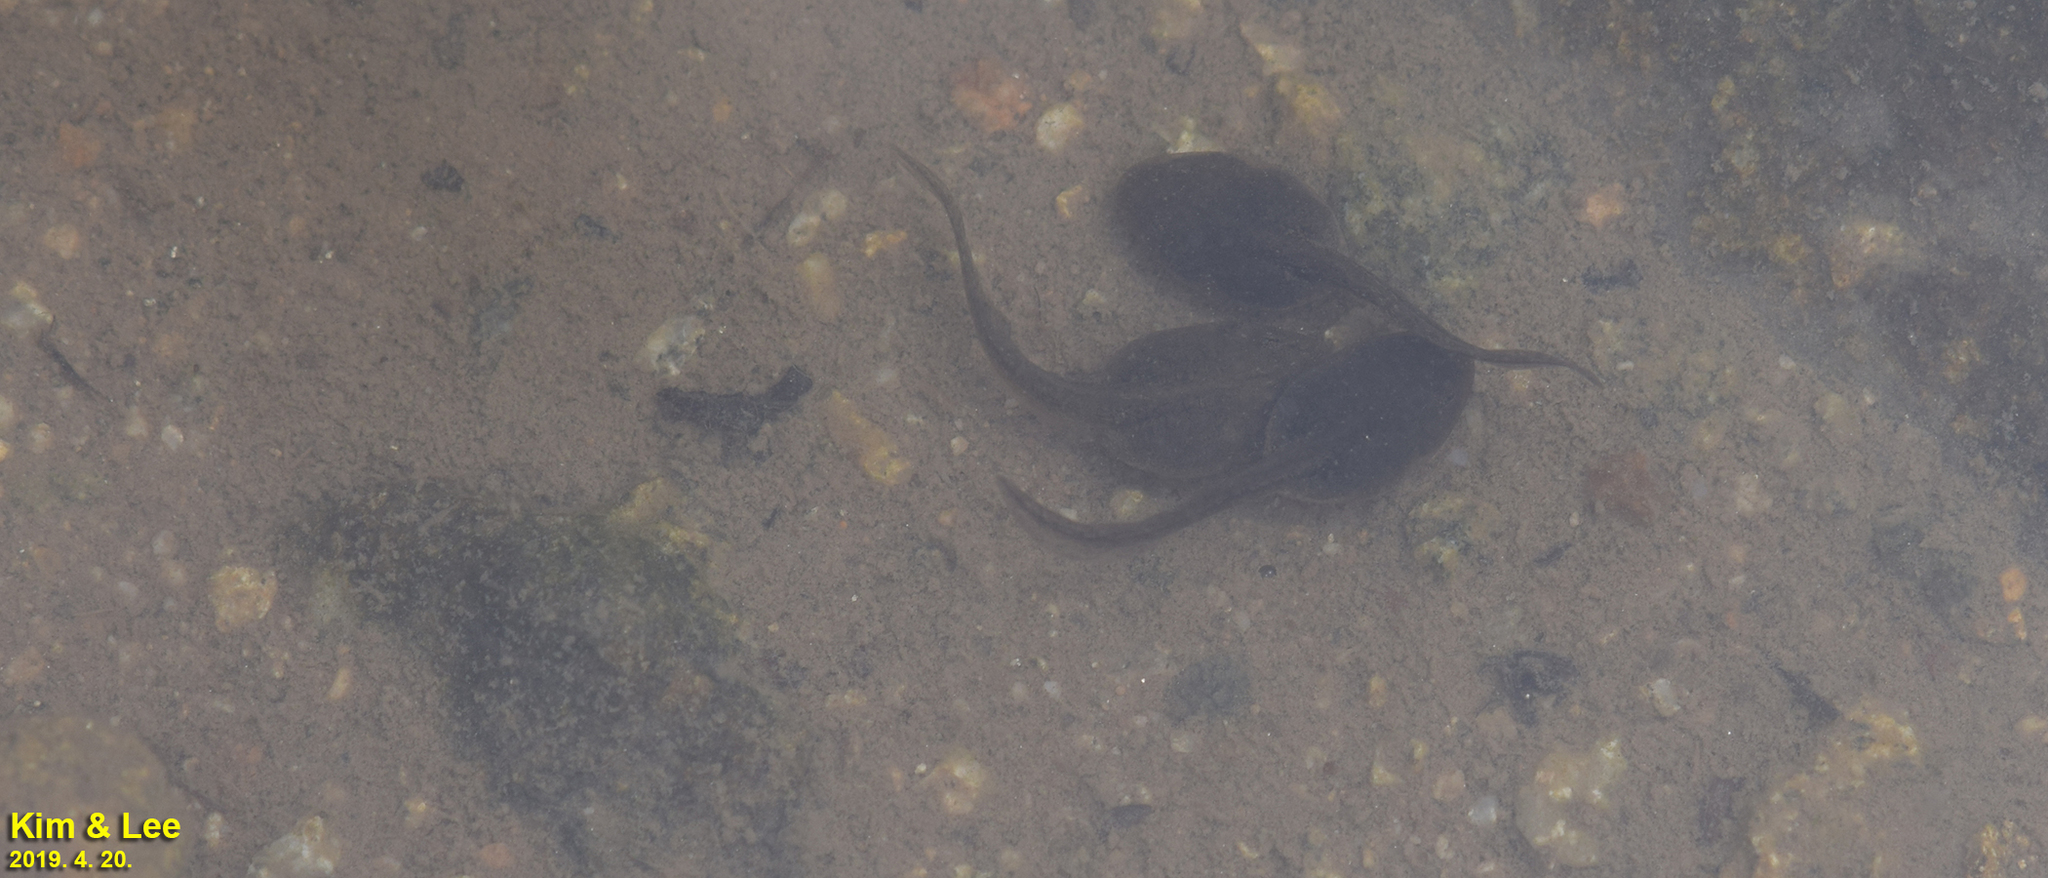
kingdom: Animalia
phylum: Chordata
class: Amphibia
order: Anura
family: Ranidae
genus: Rana
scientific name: Rana uenoi
